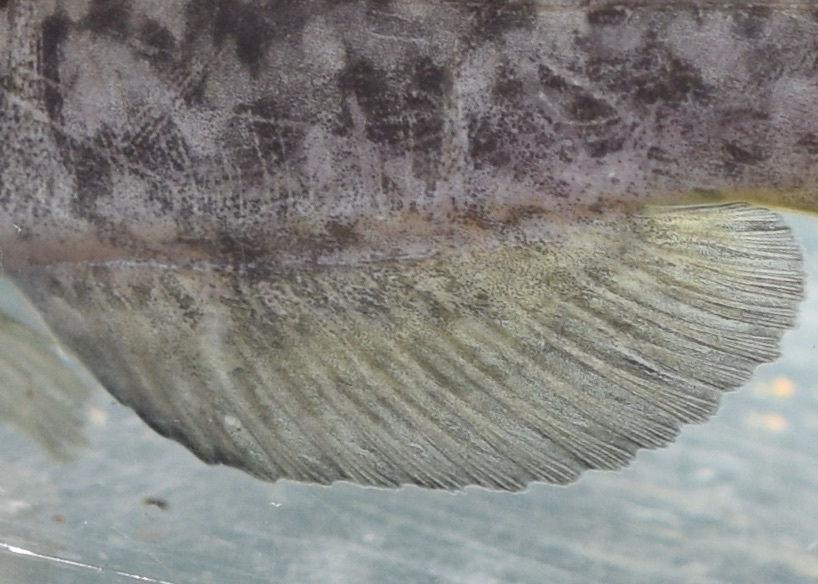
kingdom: Animalia
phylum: Chordata
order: Siluriformes
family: Ictaluridae
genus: Ameiurus
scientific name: Ameiurus brunneus
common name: Snail bullhead
